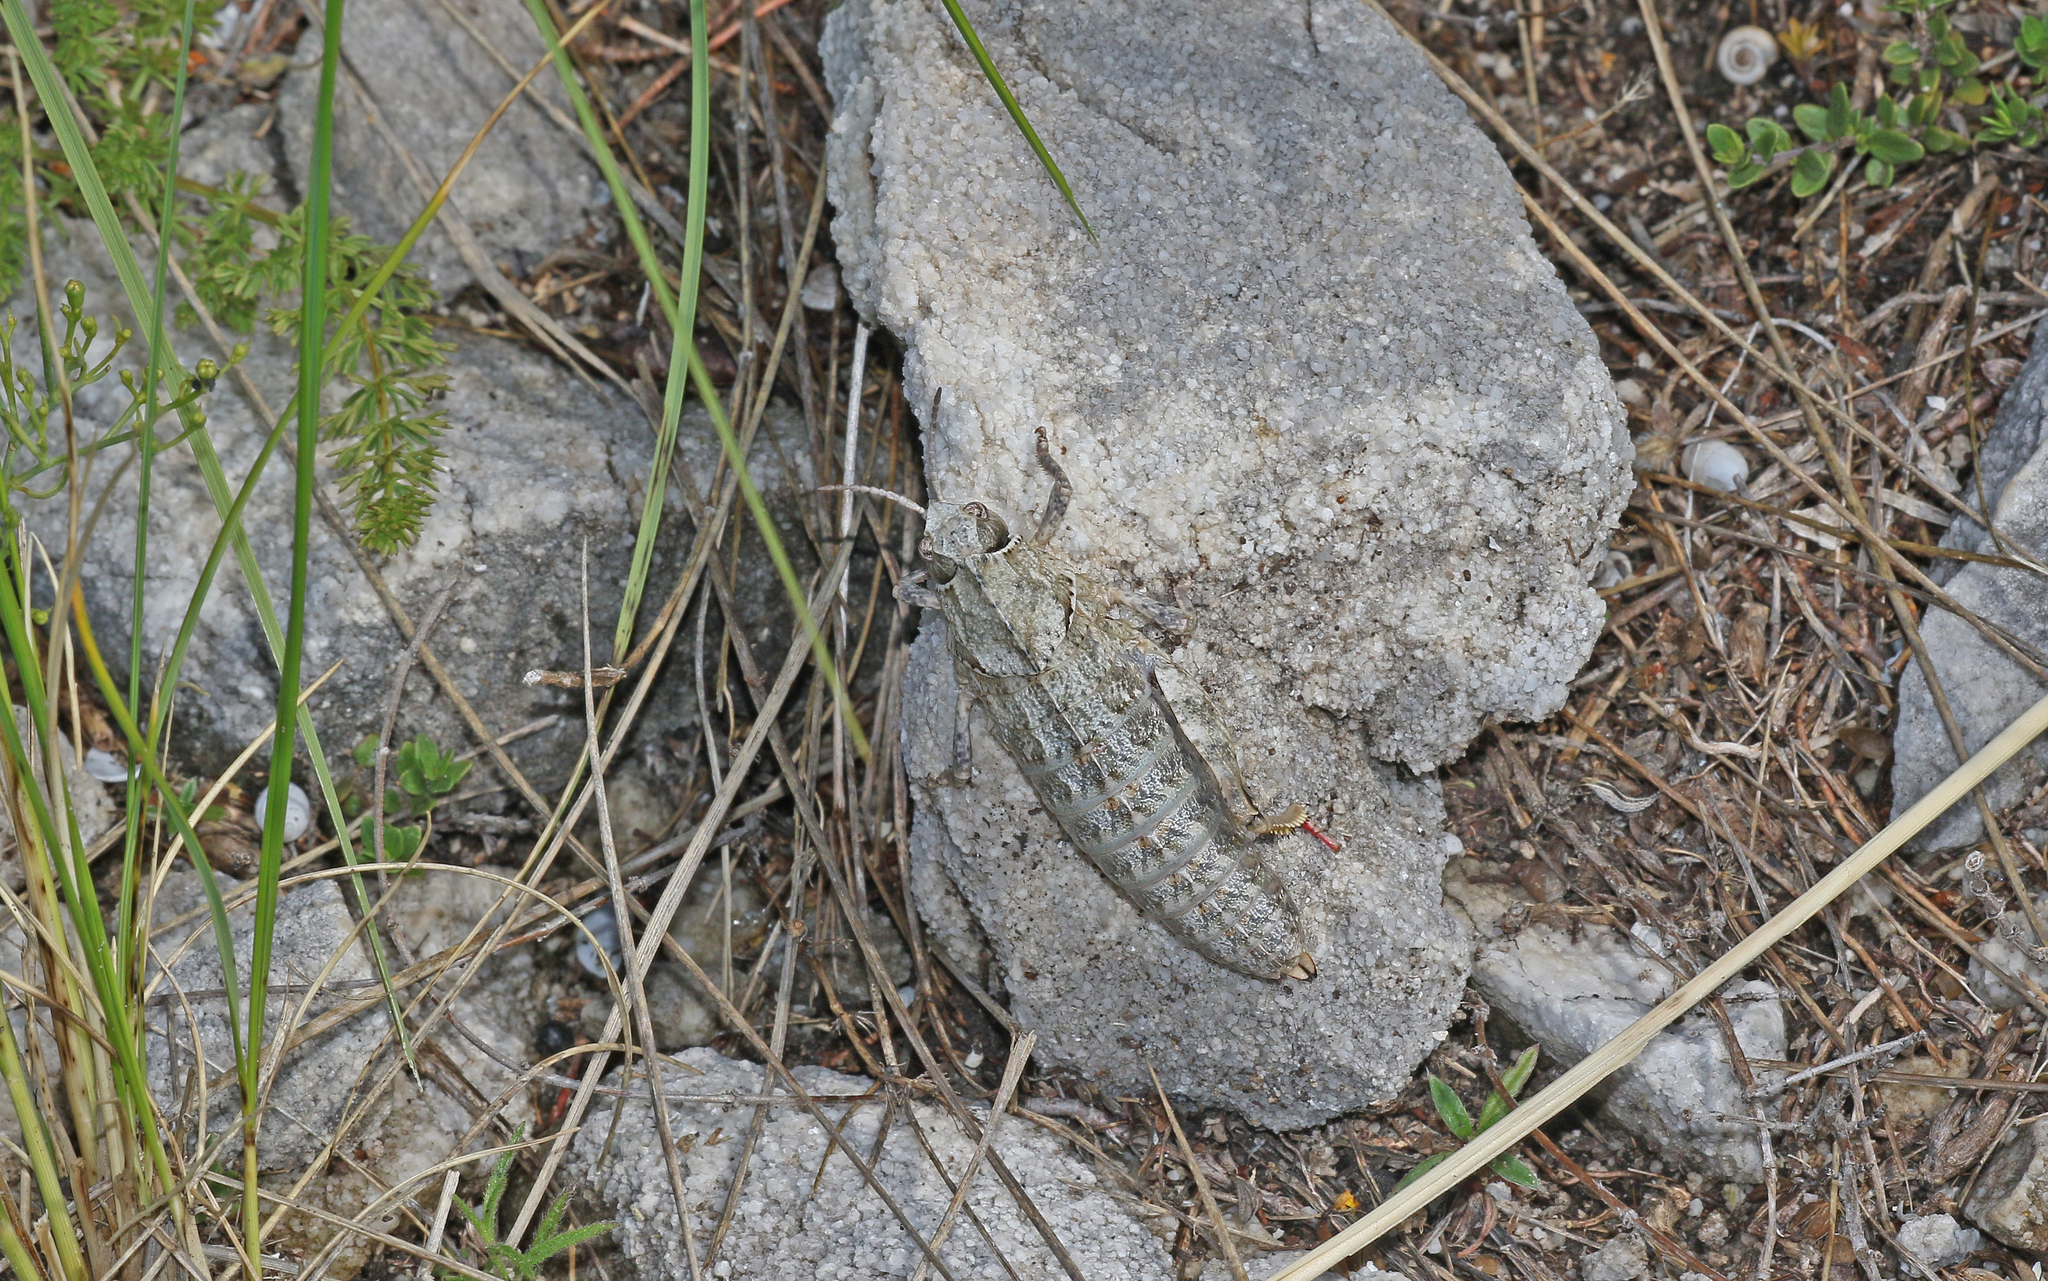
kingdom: Animalia
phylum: Arthropoda
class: Insecta
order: Orthoptera
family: Pamphagidae
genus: Nocaracris
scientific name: Nocaracris bulgaricus
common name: Bulgarian stone grasshopper
